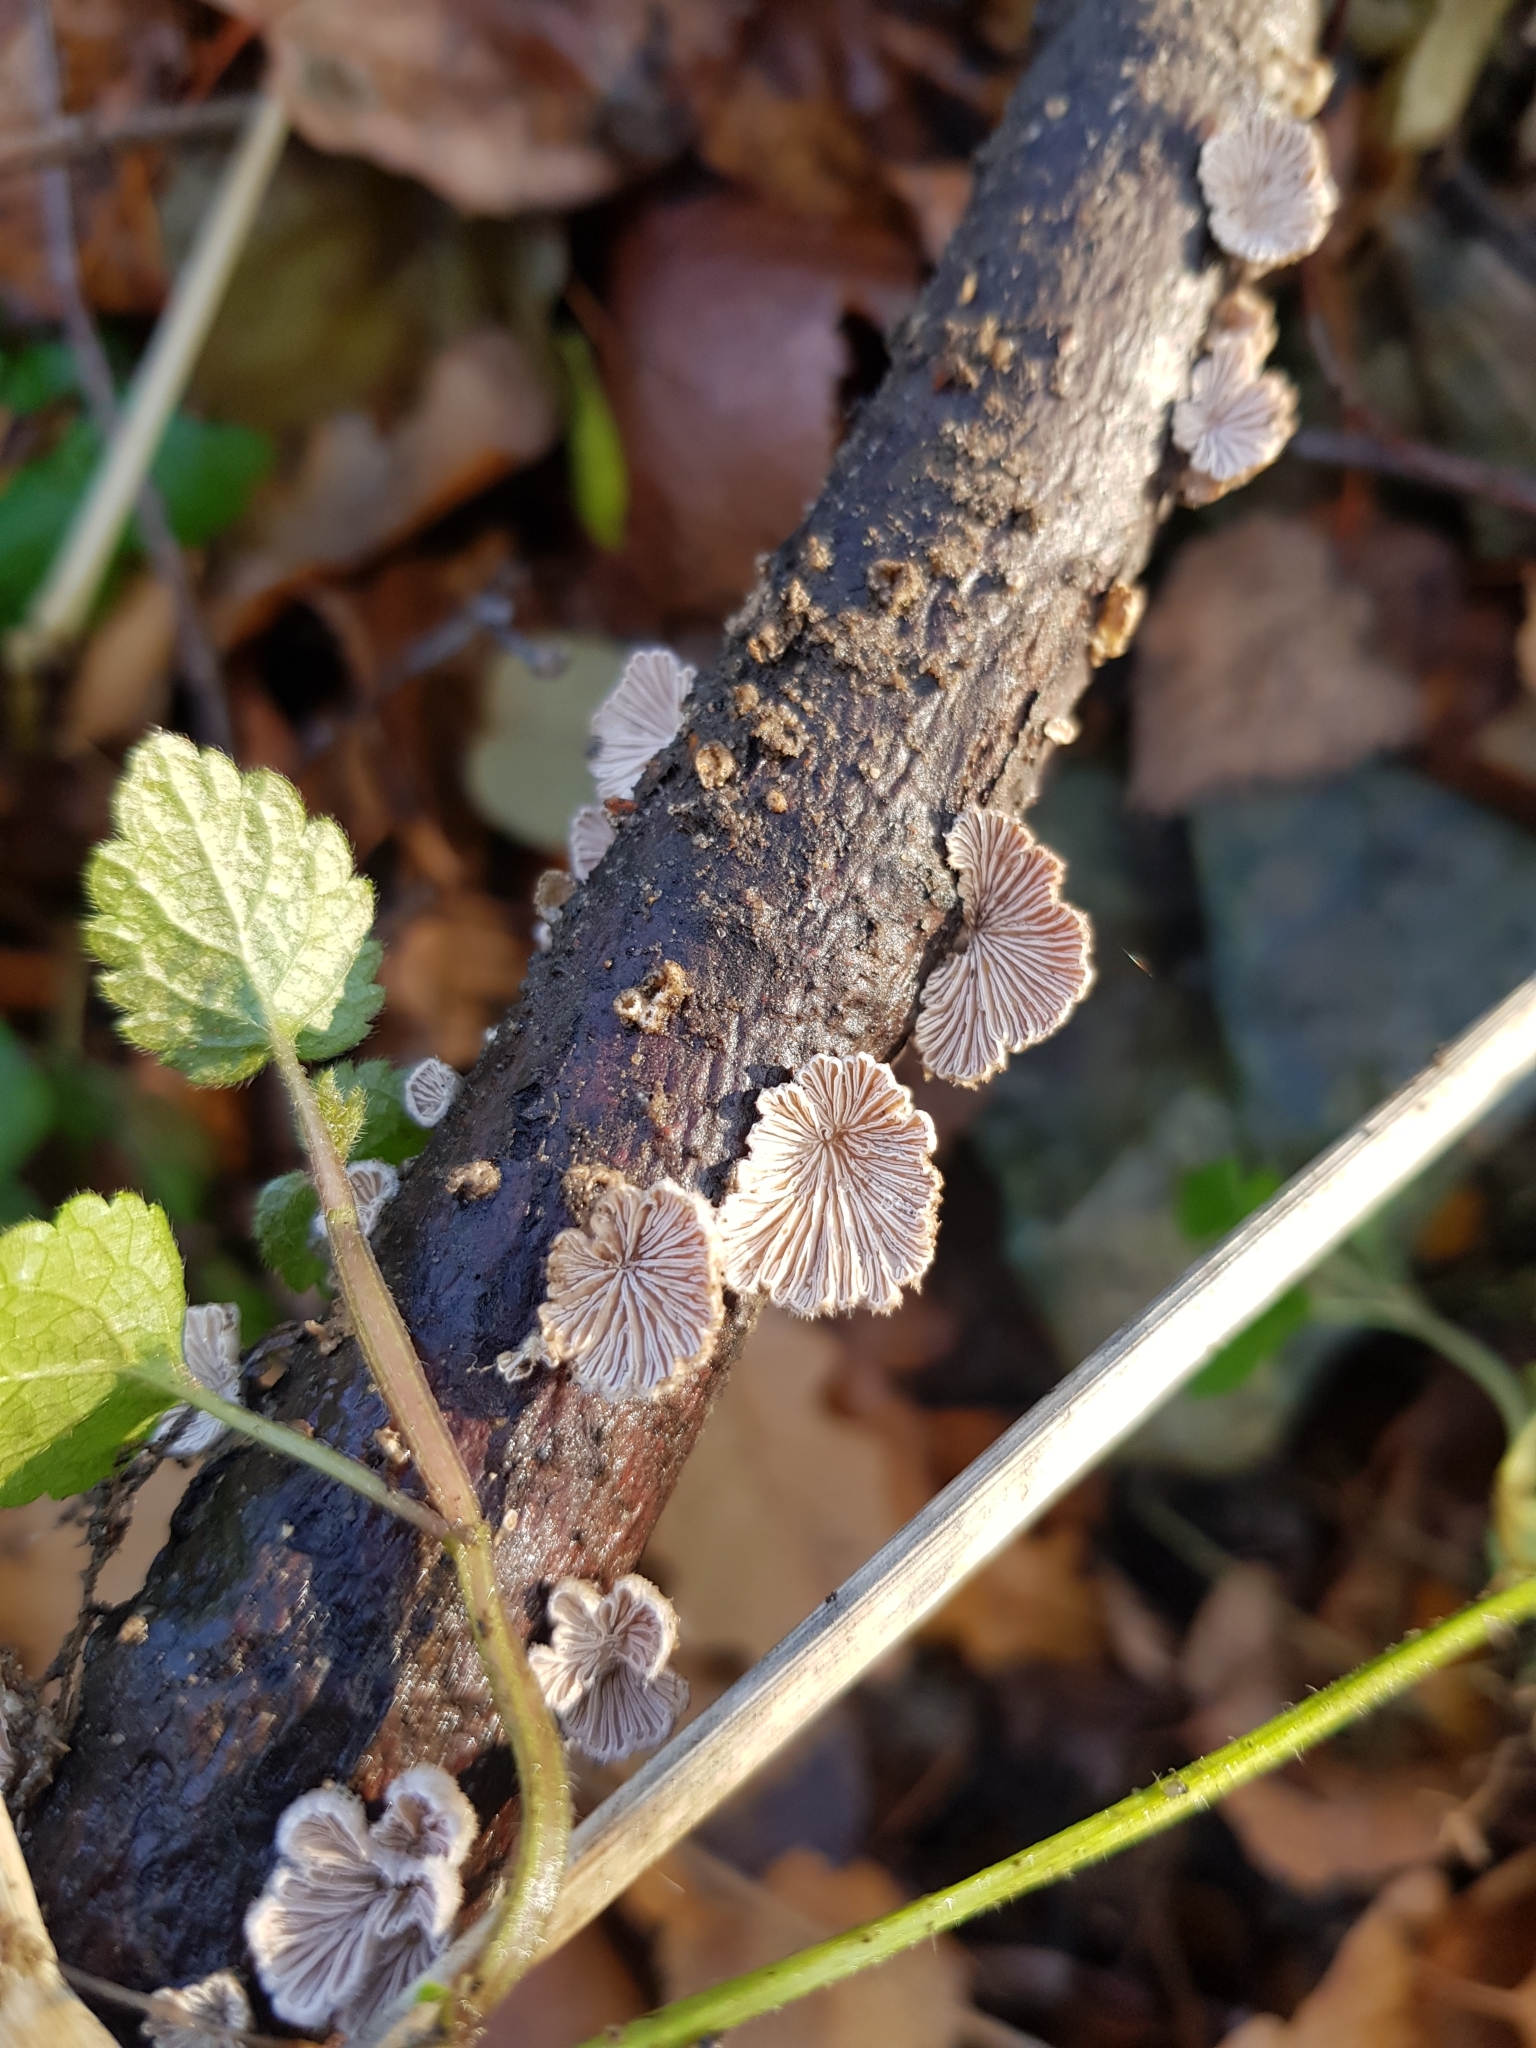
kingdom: Fungi
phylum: Basidiomycota
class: Agaricomycetes
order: Agaricales
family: Schizophyllaceae
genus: Schizophyllum
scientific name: Schizophyllum commune
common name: Common porecrust
